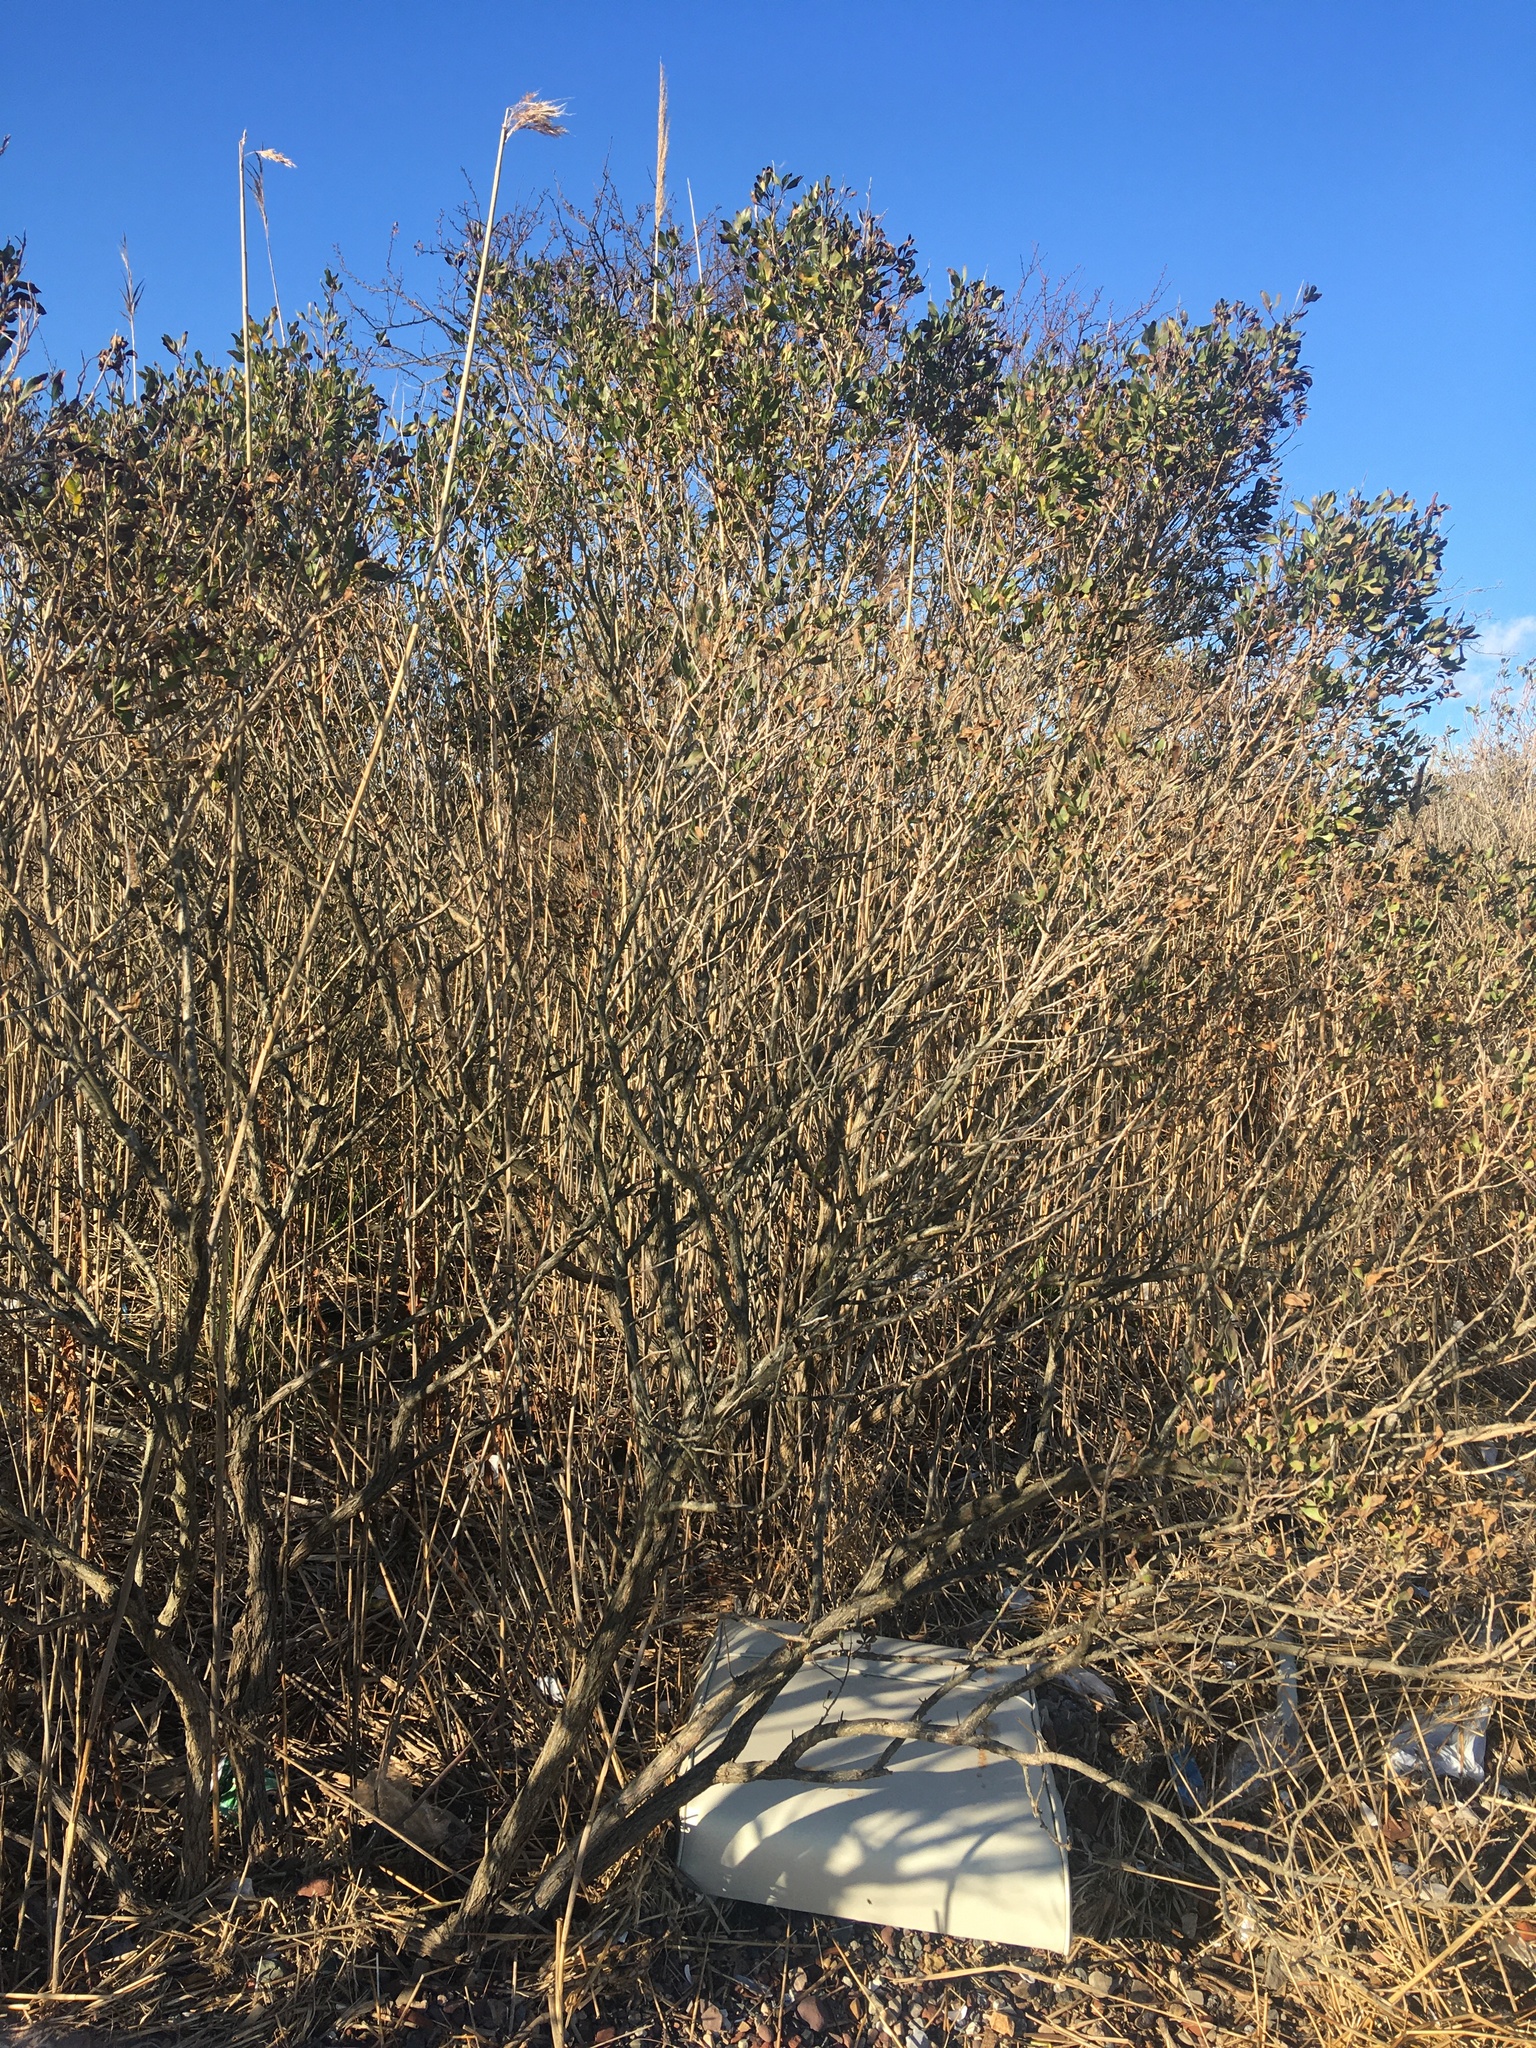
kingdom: Plantae
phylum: Tracheophyta
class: Magnoliopsida
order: Asterales
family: Asteraceae
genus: Baccharis
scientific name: Baccharis halimifolia
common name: Eastern baccharis
